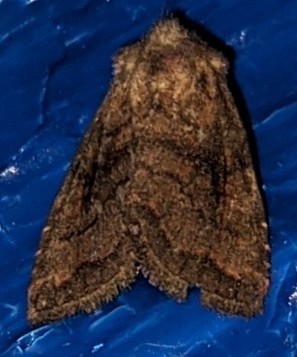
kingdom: Animalia
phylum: Arthropoda
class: Insecta
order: Lepidoptera
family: Noctuidae
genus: Tricholita
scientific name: Tricholita signata
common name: Signate quaker
